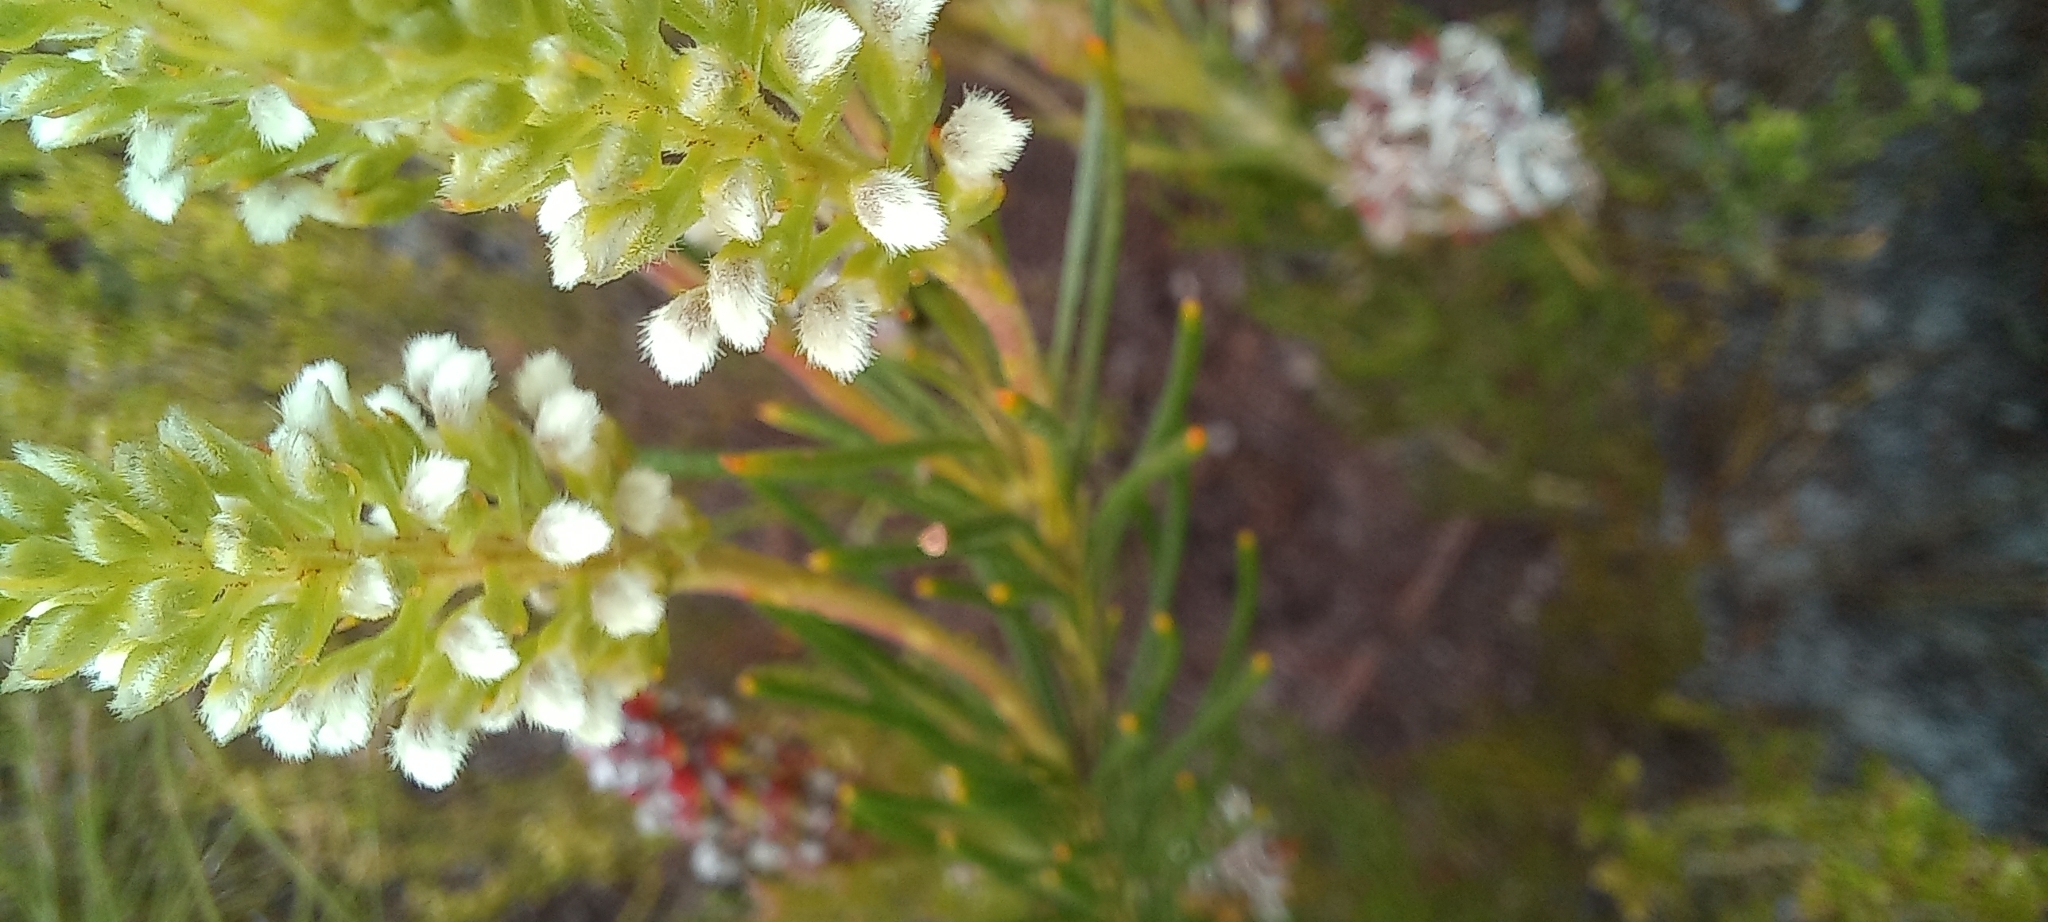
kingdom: Plantae
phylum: Tracheophyta
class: Magnoliopsida
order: Proteales
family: Proteaceae
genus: Spatalla
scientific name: Spatalla curvifolia
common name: White-stalked spoon
